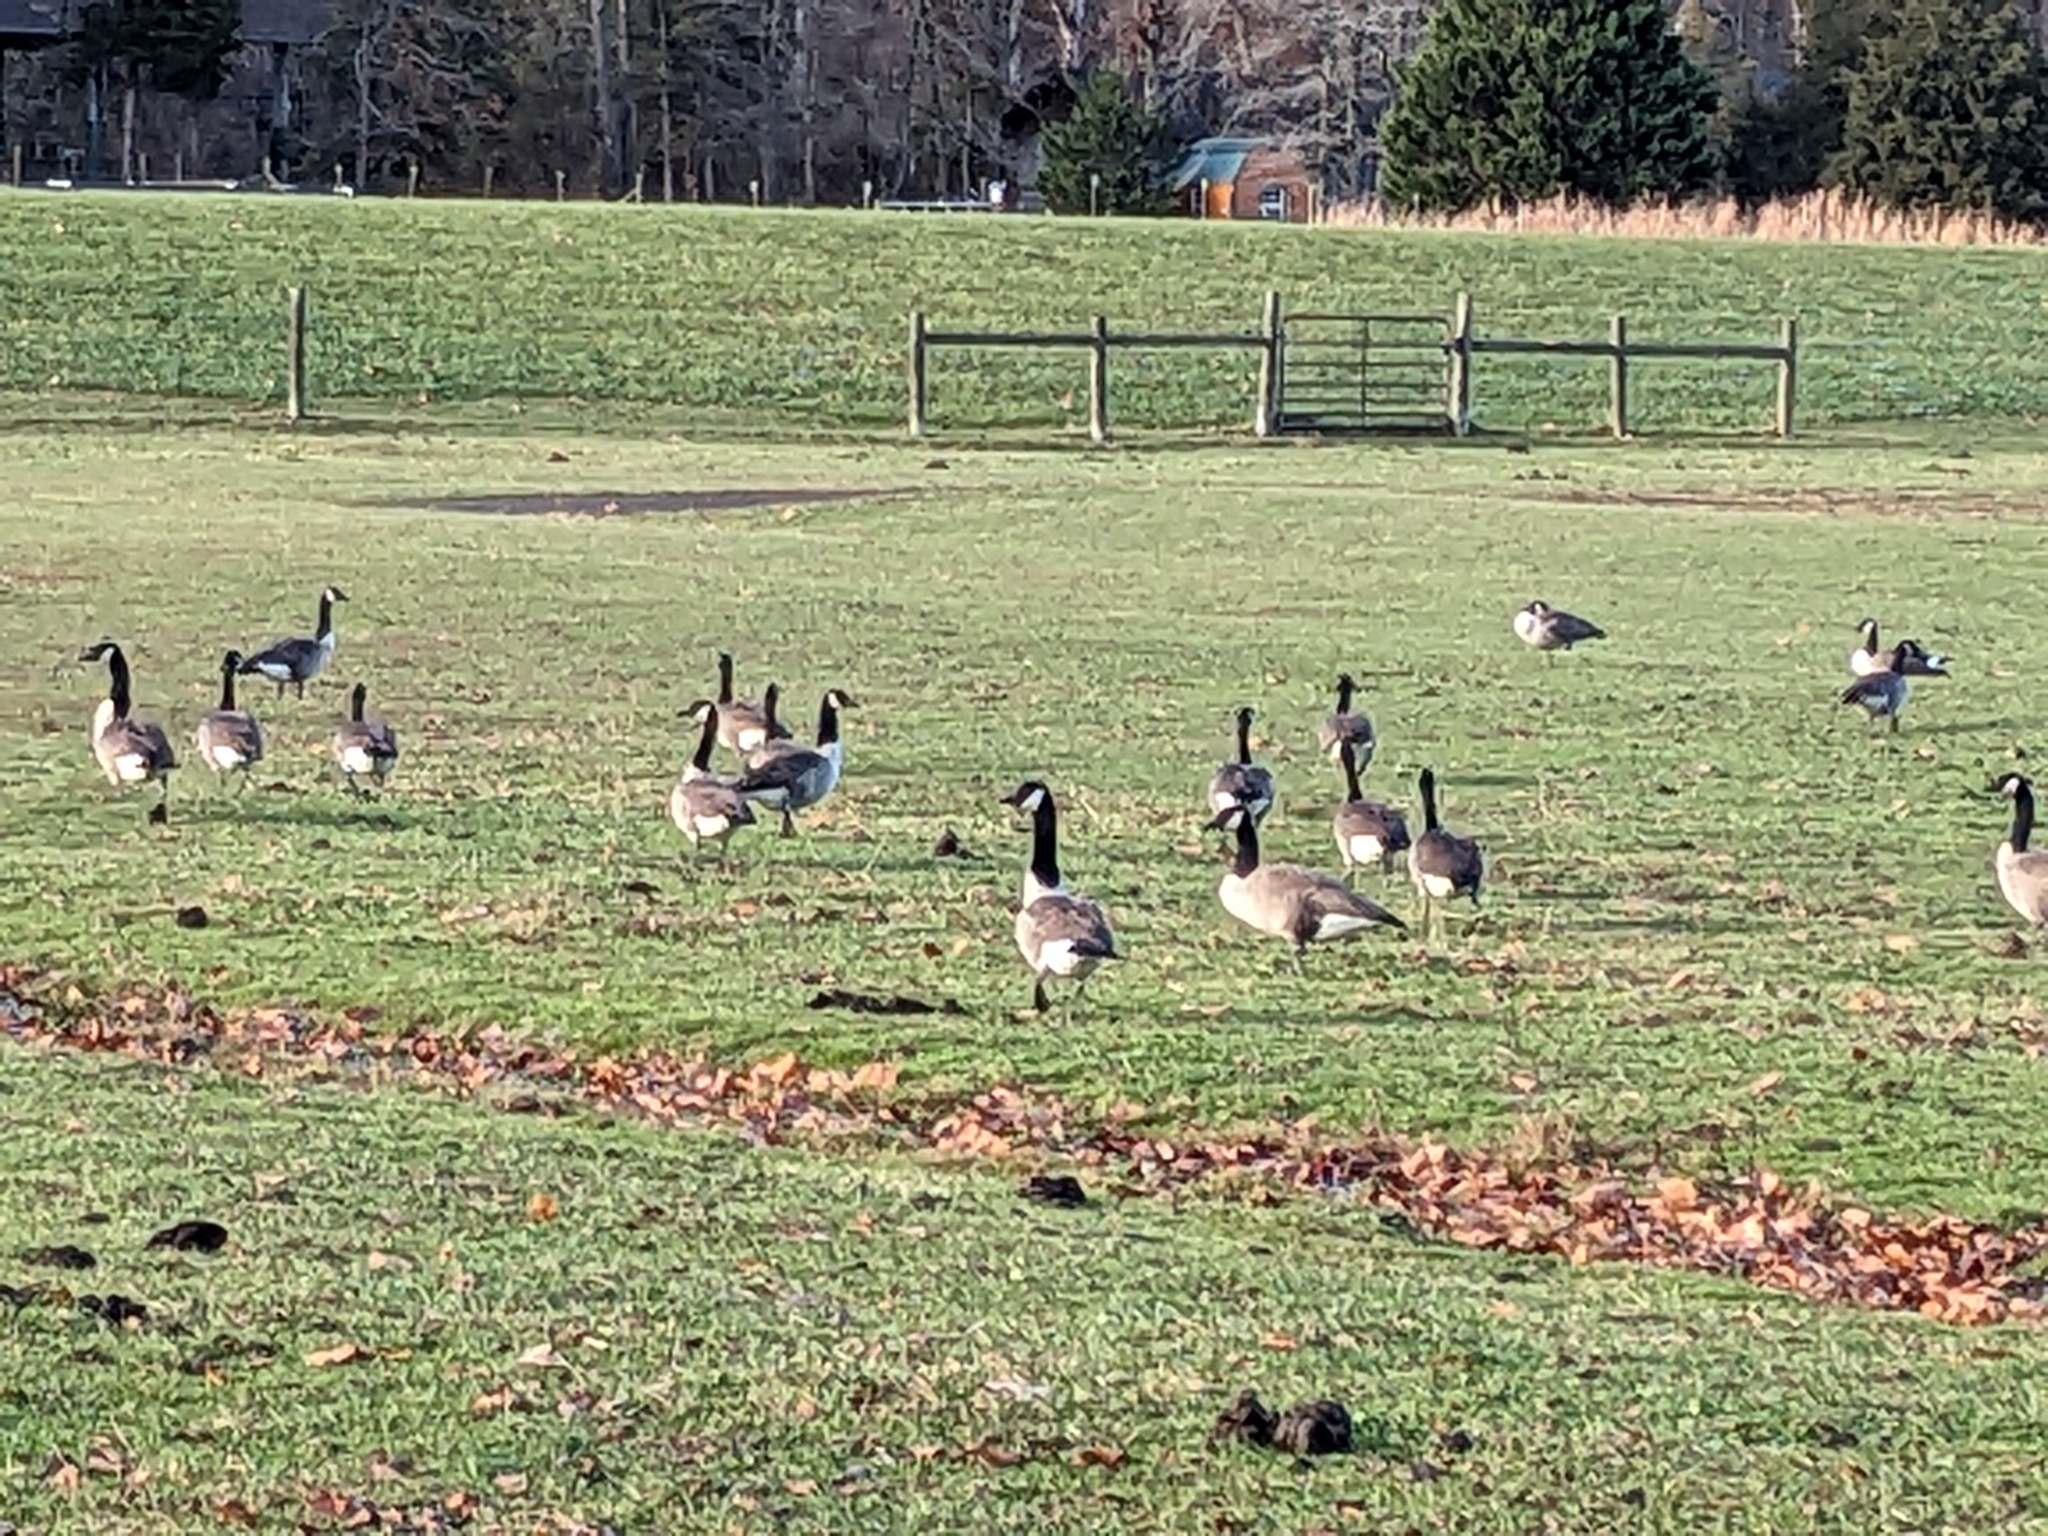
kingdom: Animalia
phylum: Chordata
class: Aves
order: Anseriformes
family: Anatidae
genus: Branta
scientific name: Branta canadensis
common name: Canada goose
